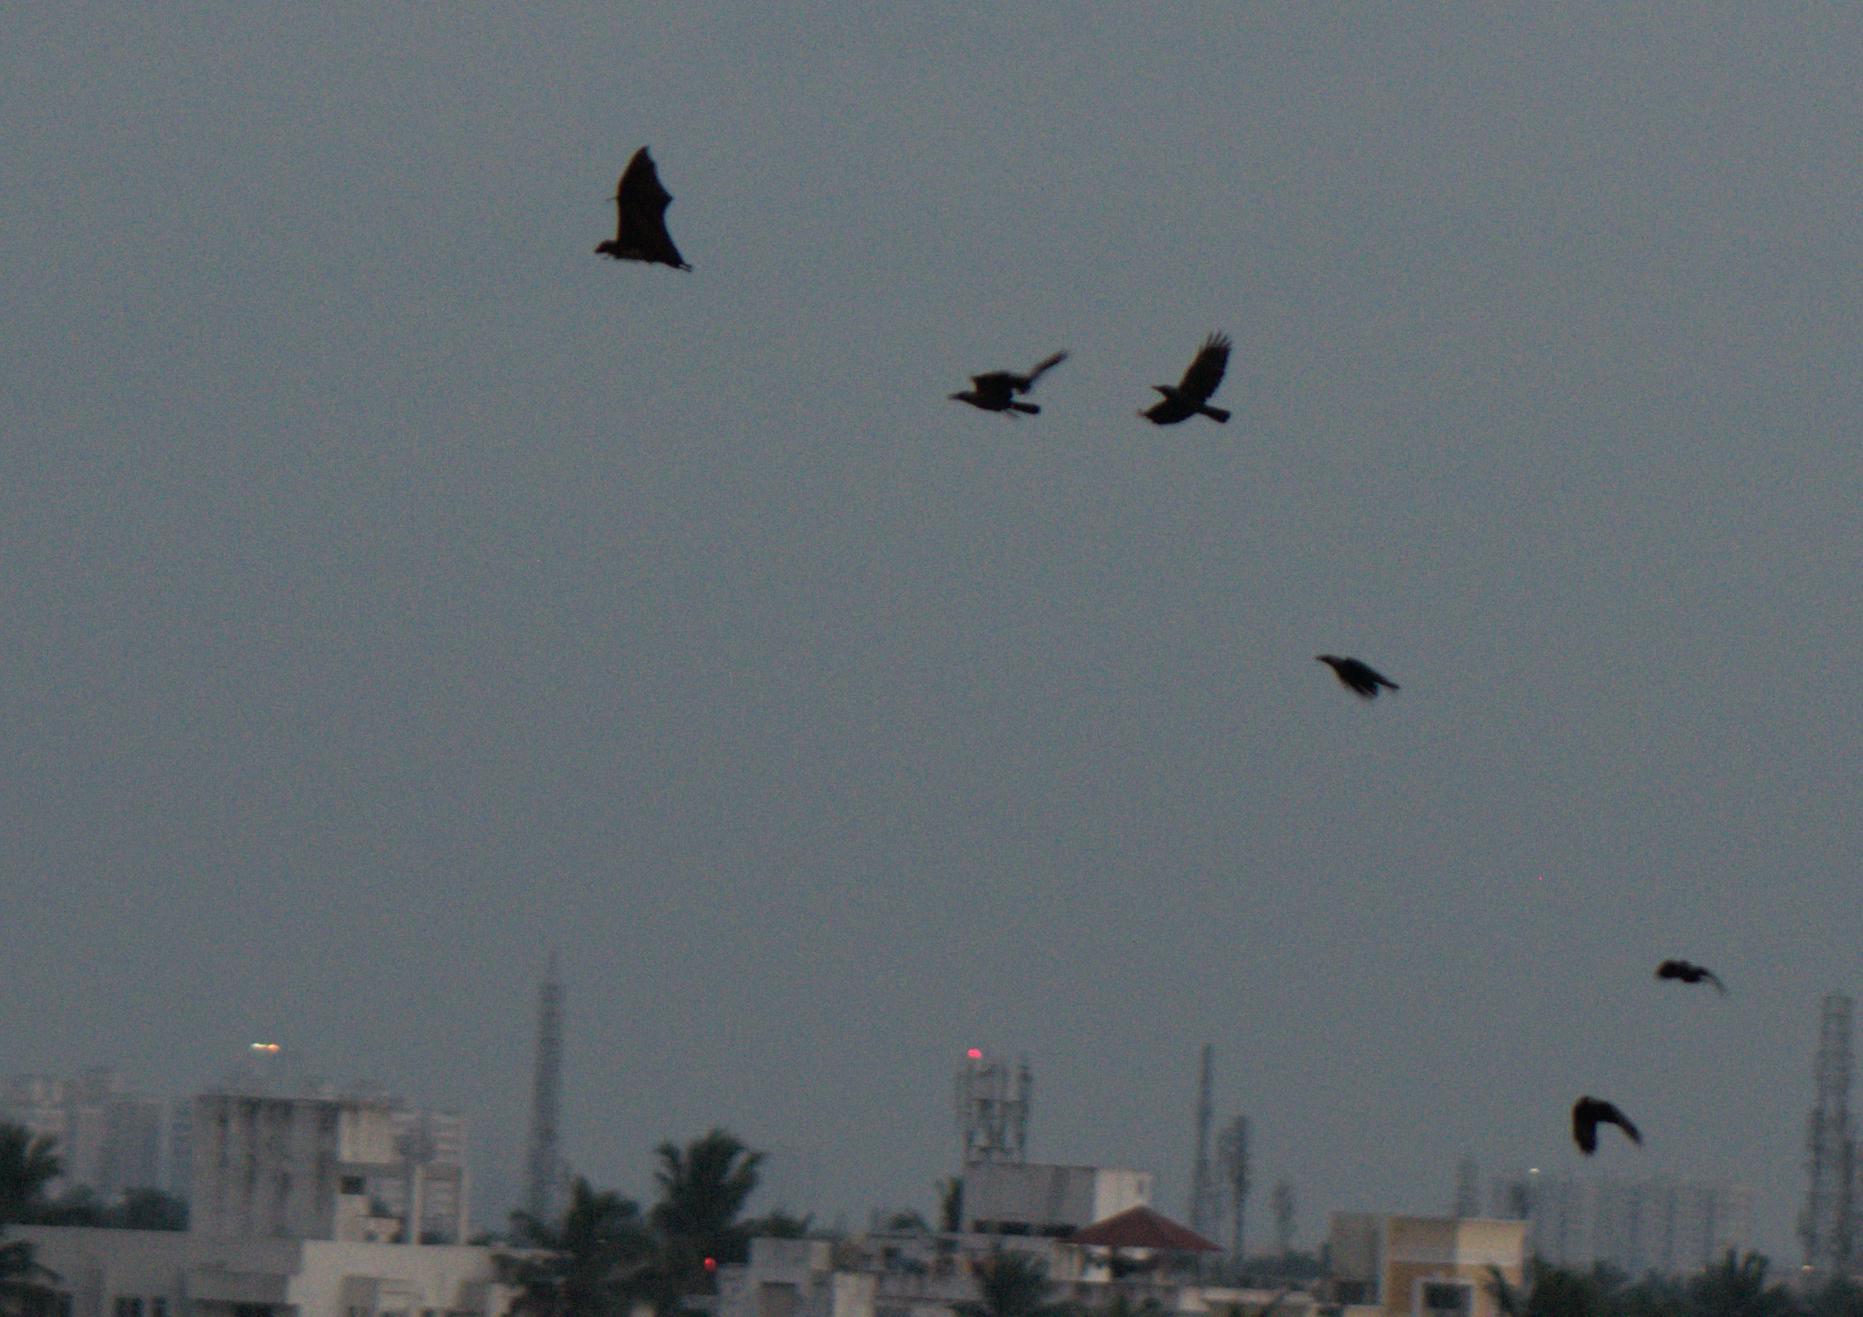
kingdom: Animalia
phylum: Chordata
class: Aves
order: Passeriformes
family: Corvidae
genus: Corvus
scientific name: Corvus splendens
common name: House crow
